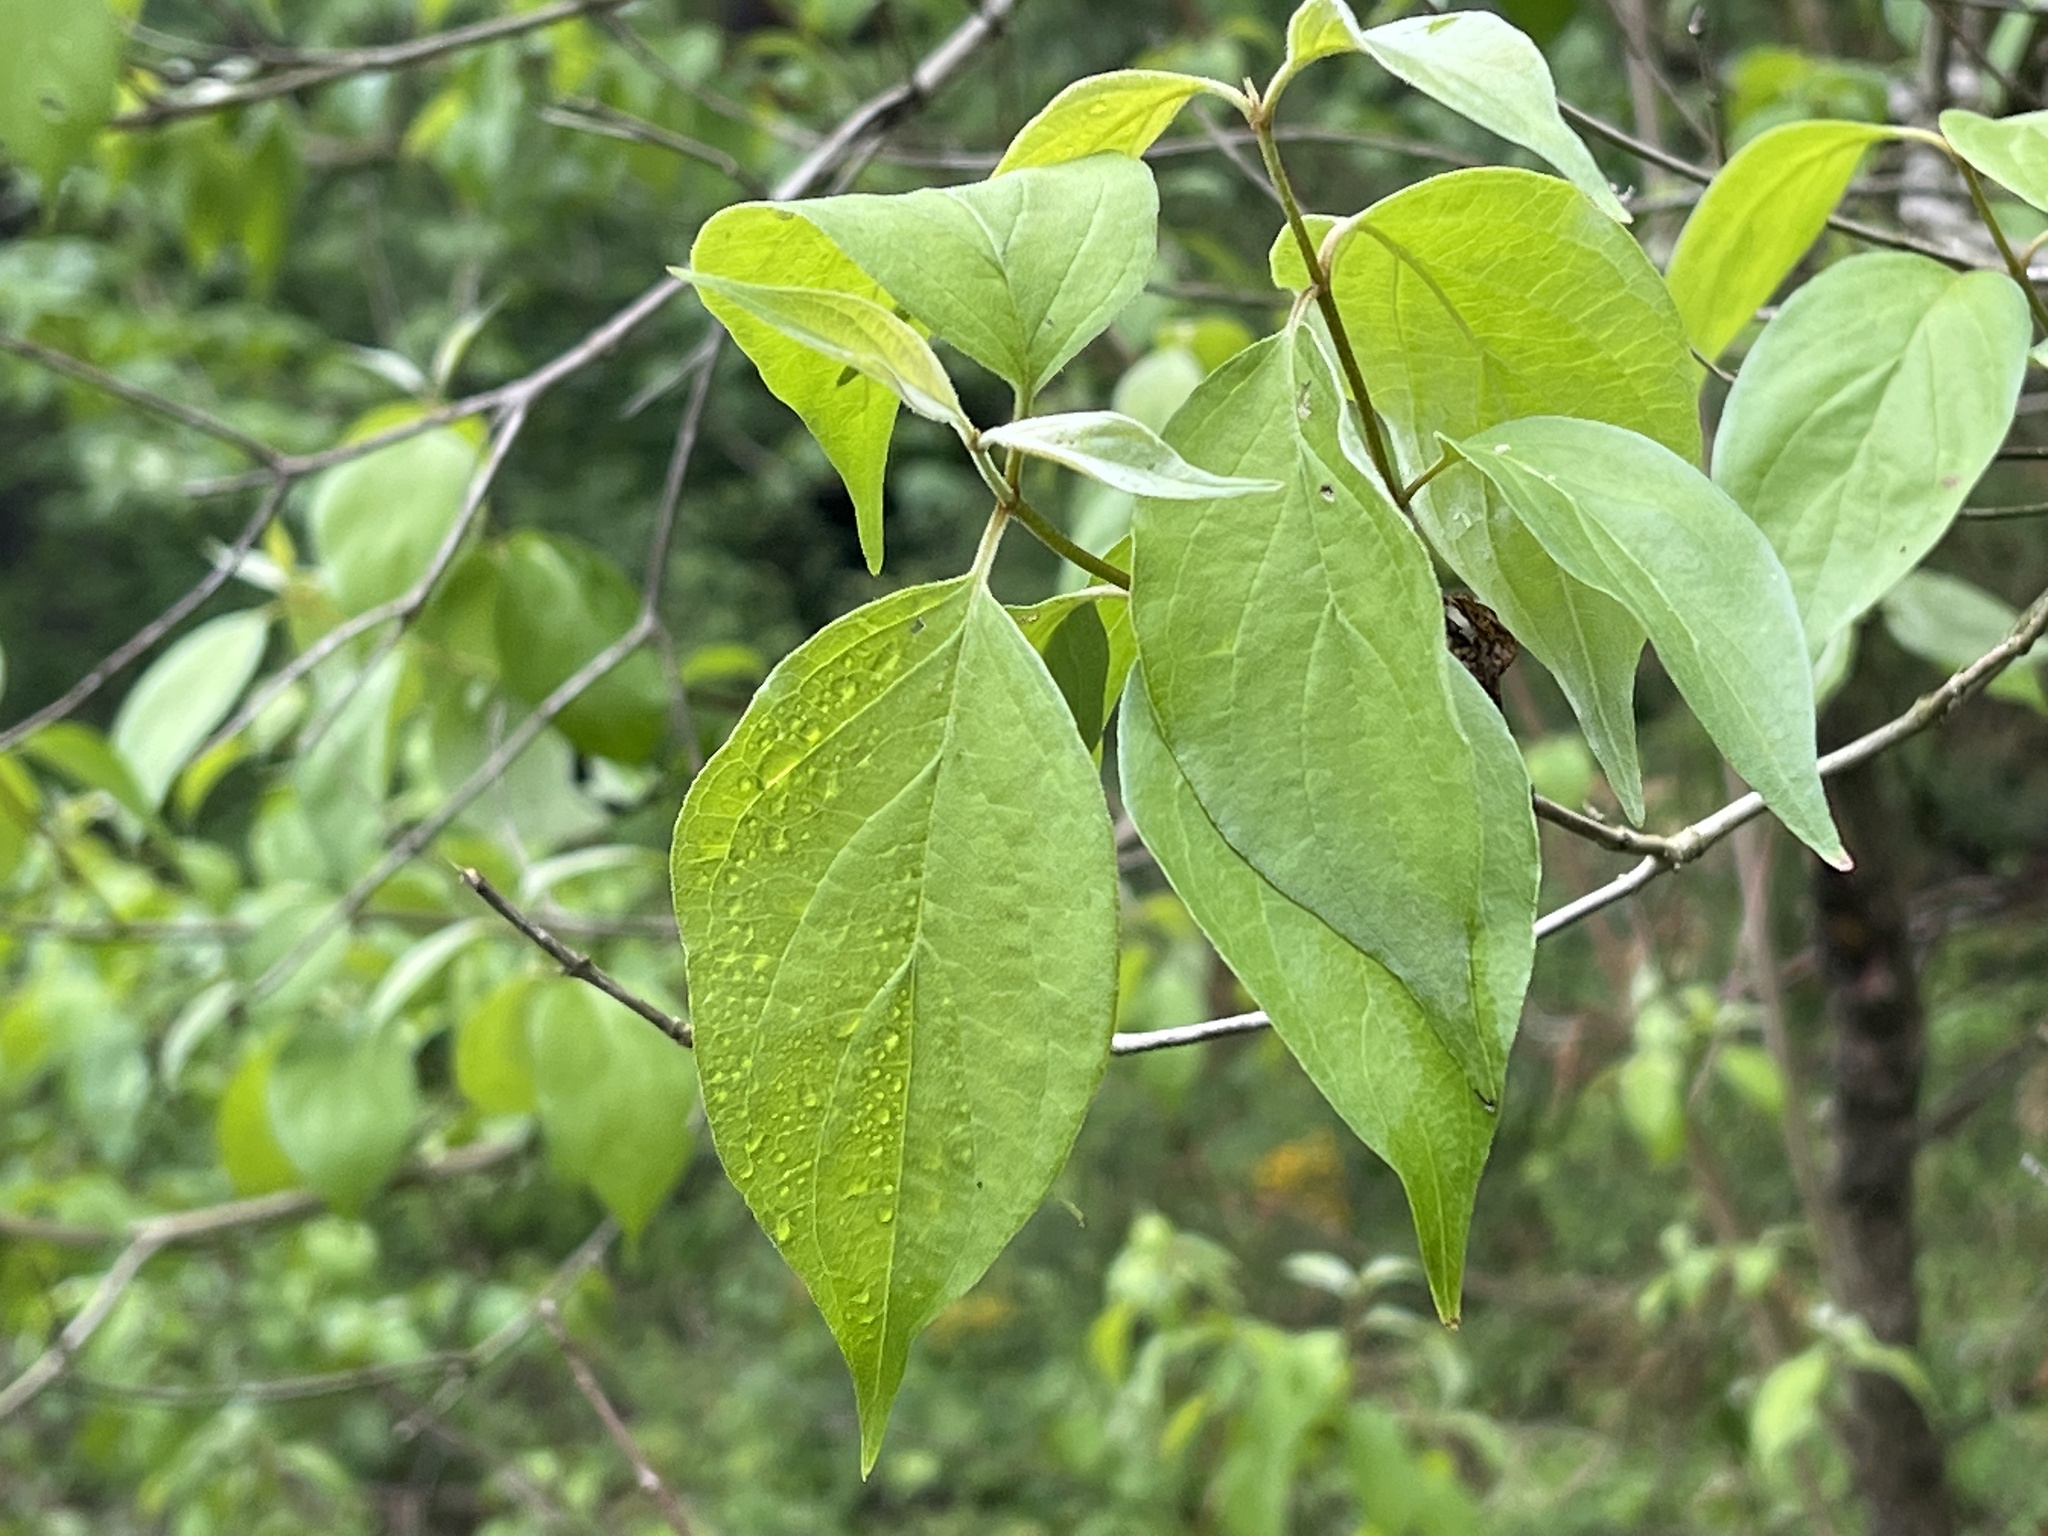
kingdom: Plantae
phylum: Tracheophyta
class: Magnoliopsida
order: Dipsacales
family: Caprifoliaceae
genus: Lonicera
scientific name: Lonicera maackii
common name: Amur honeysuckle
